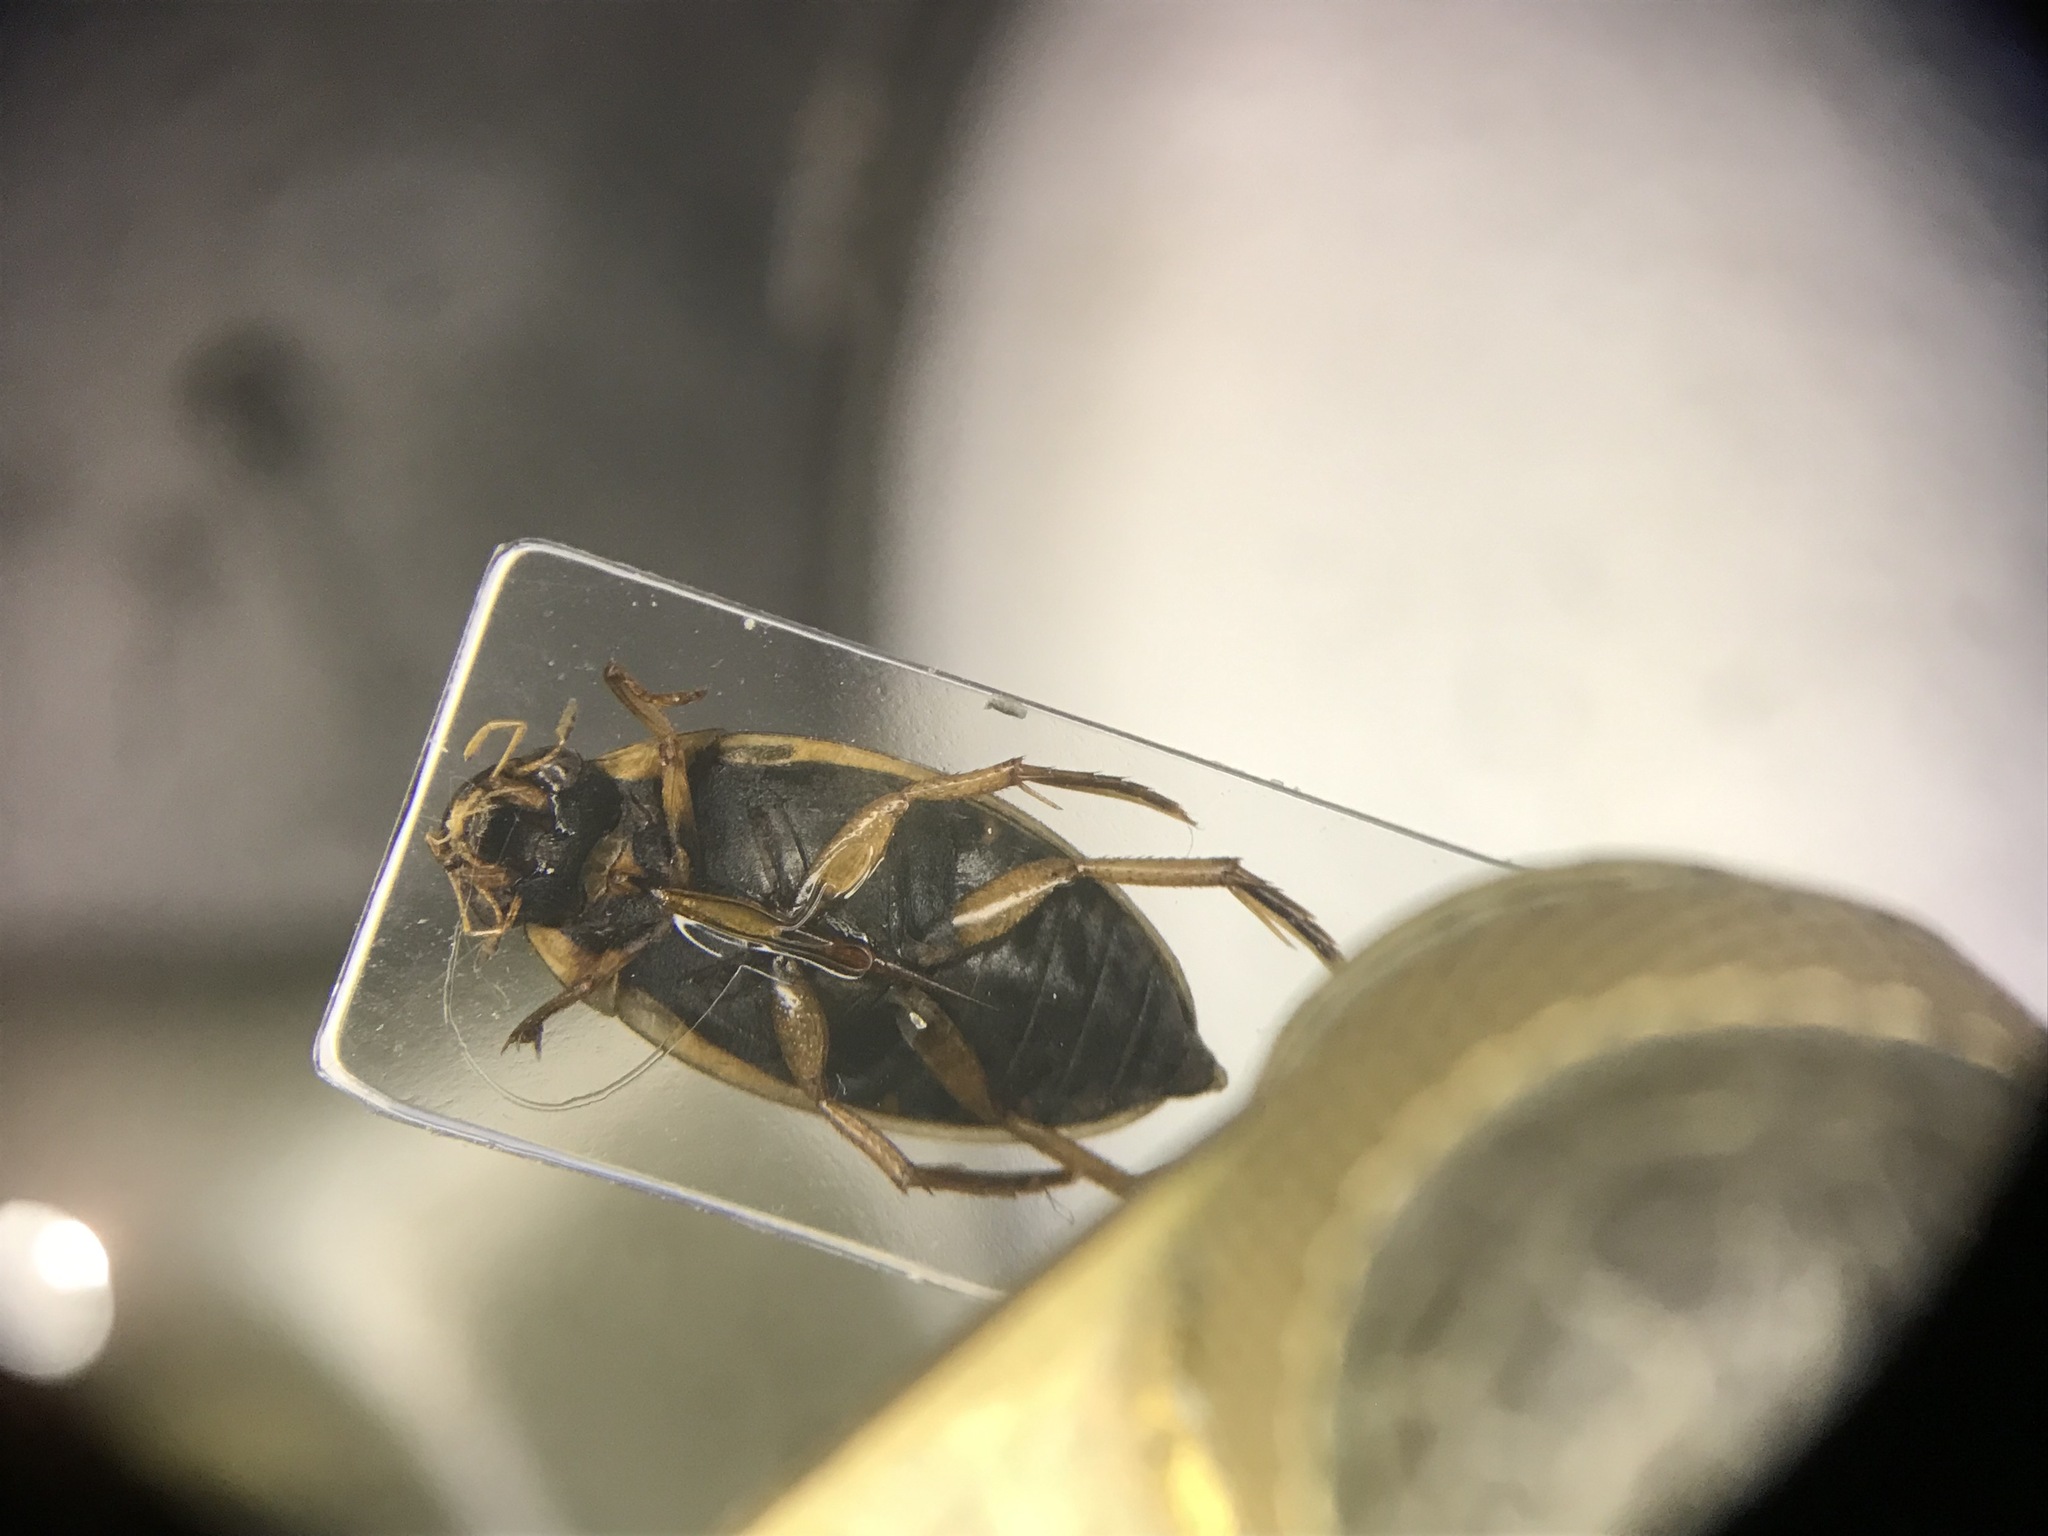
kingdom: Animalia
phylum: Arthropoda
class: Insecta
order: Coleoptera
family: Hydrophilidae
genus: Tropisternus
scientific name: Tropisternus lateralis
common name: Lateral-banded water scavenger beetle
